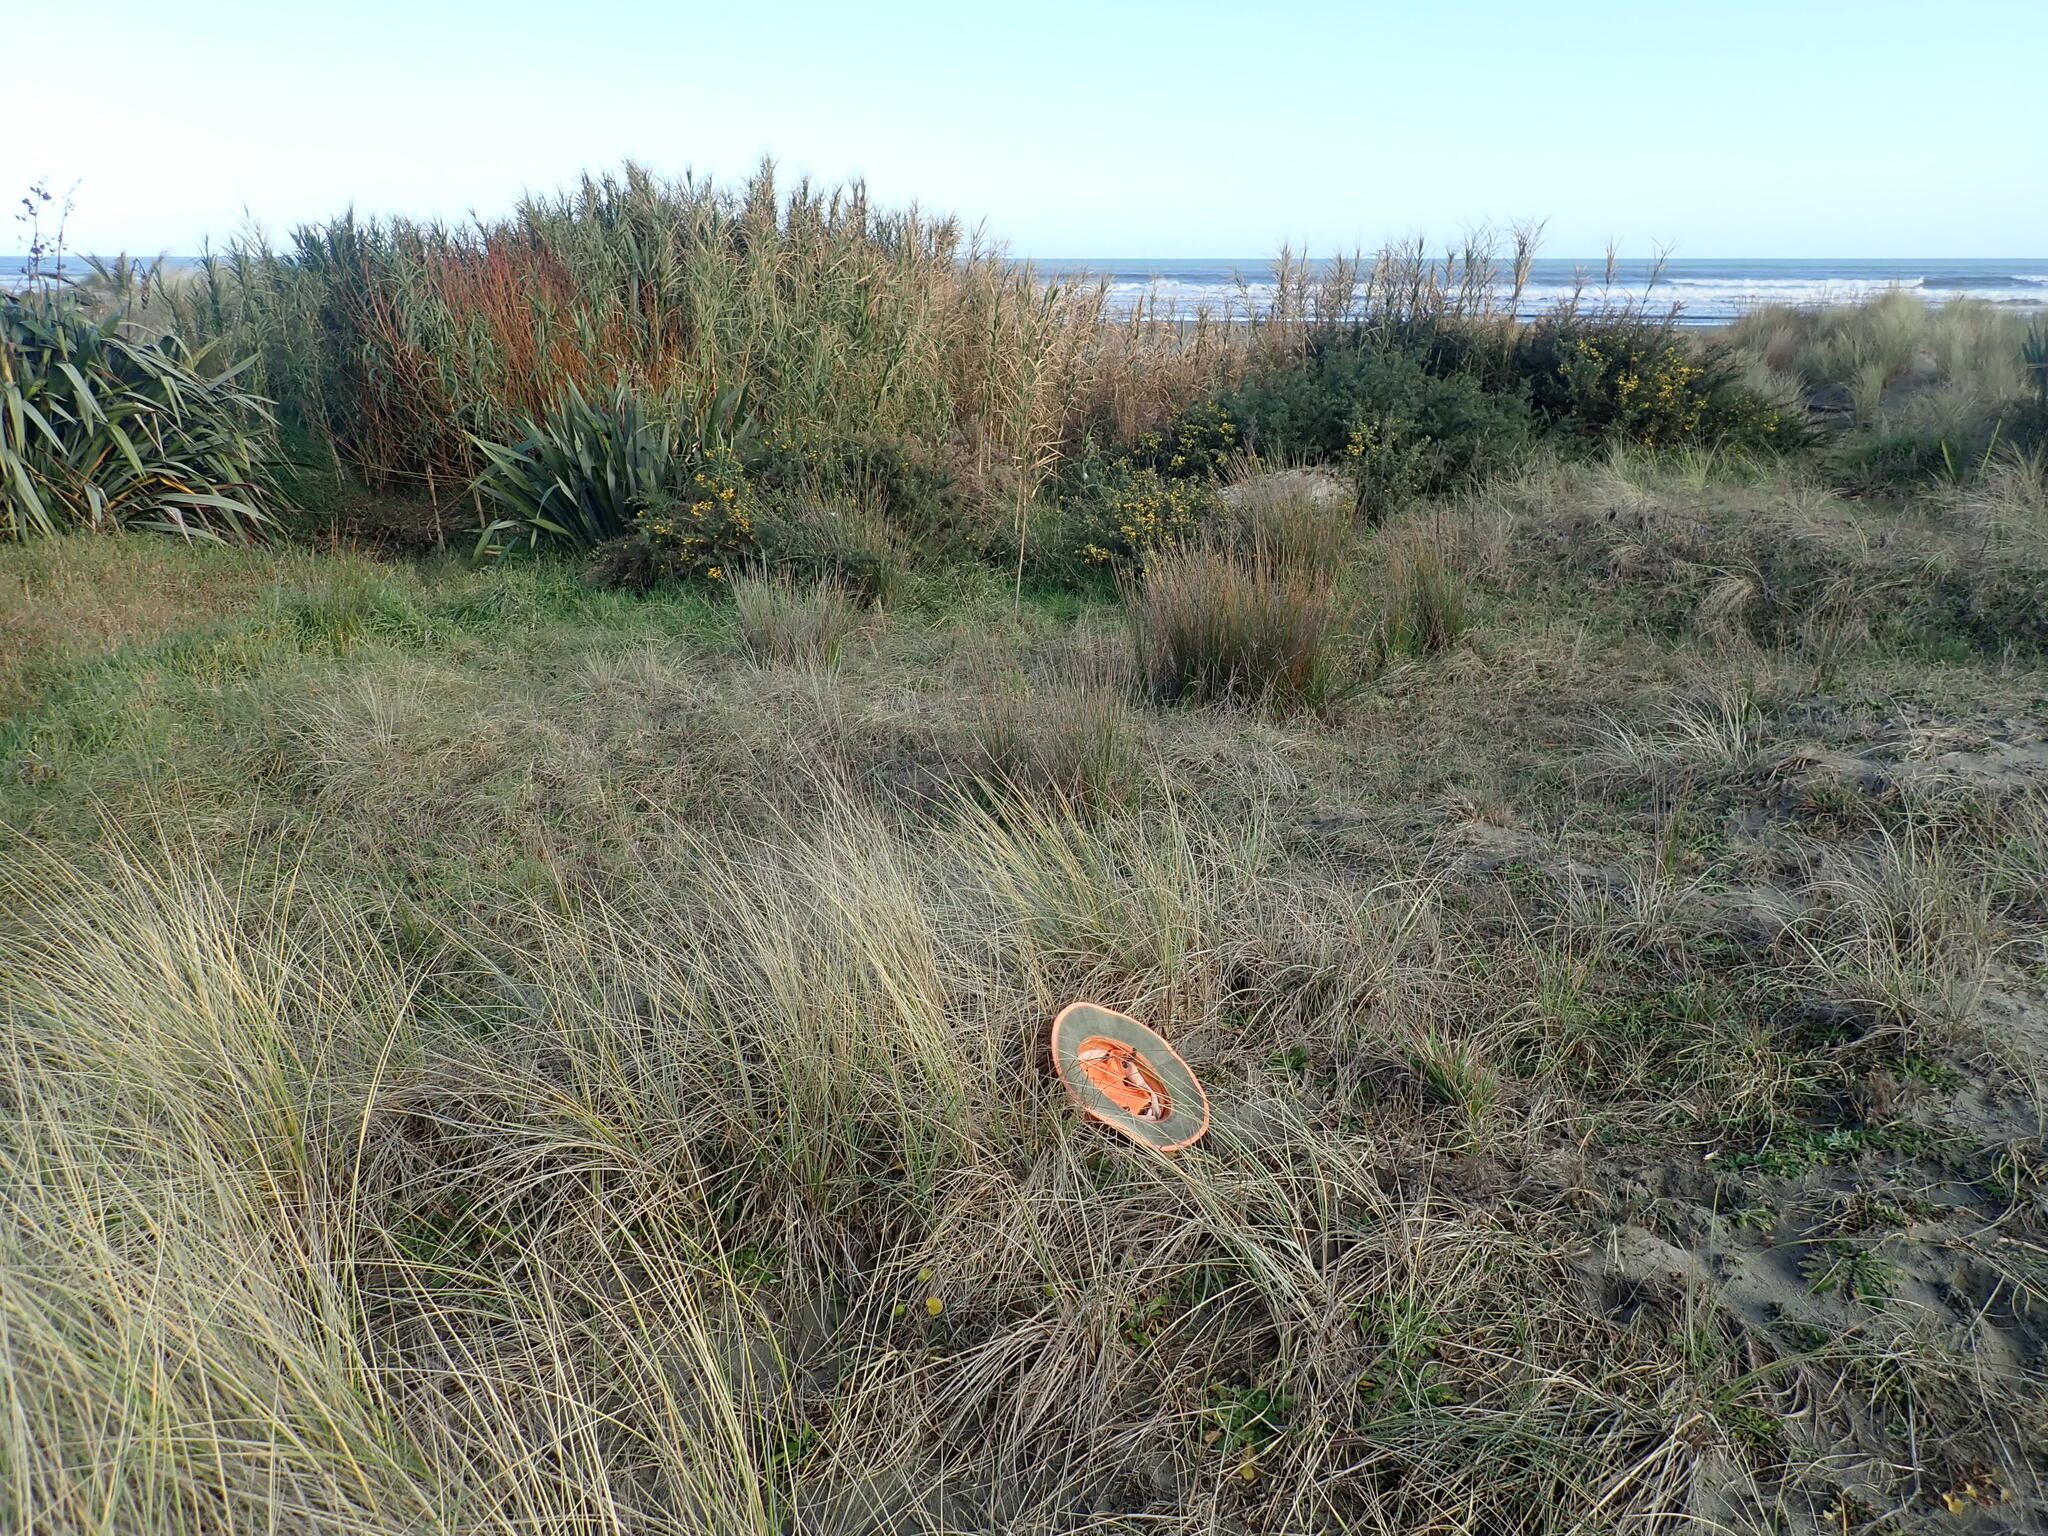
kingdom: Plantae
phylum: Tracheophyta
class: Magnoliopsida
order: Solanales
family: Convolvulaceae
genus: Calystegia
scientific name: Calystegia soldanella
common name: Sea bindweed
